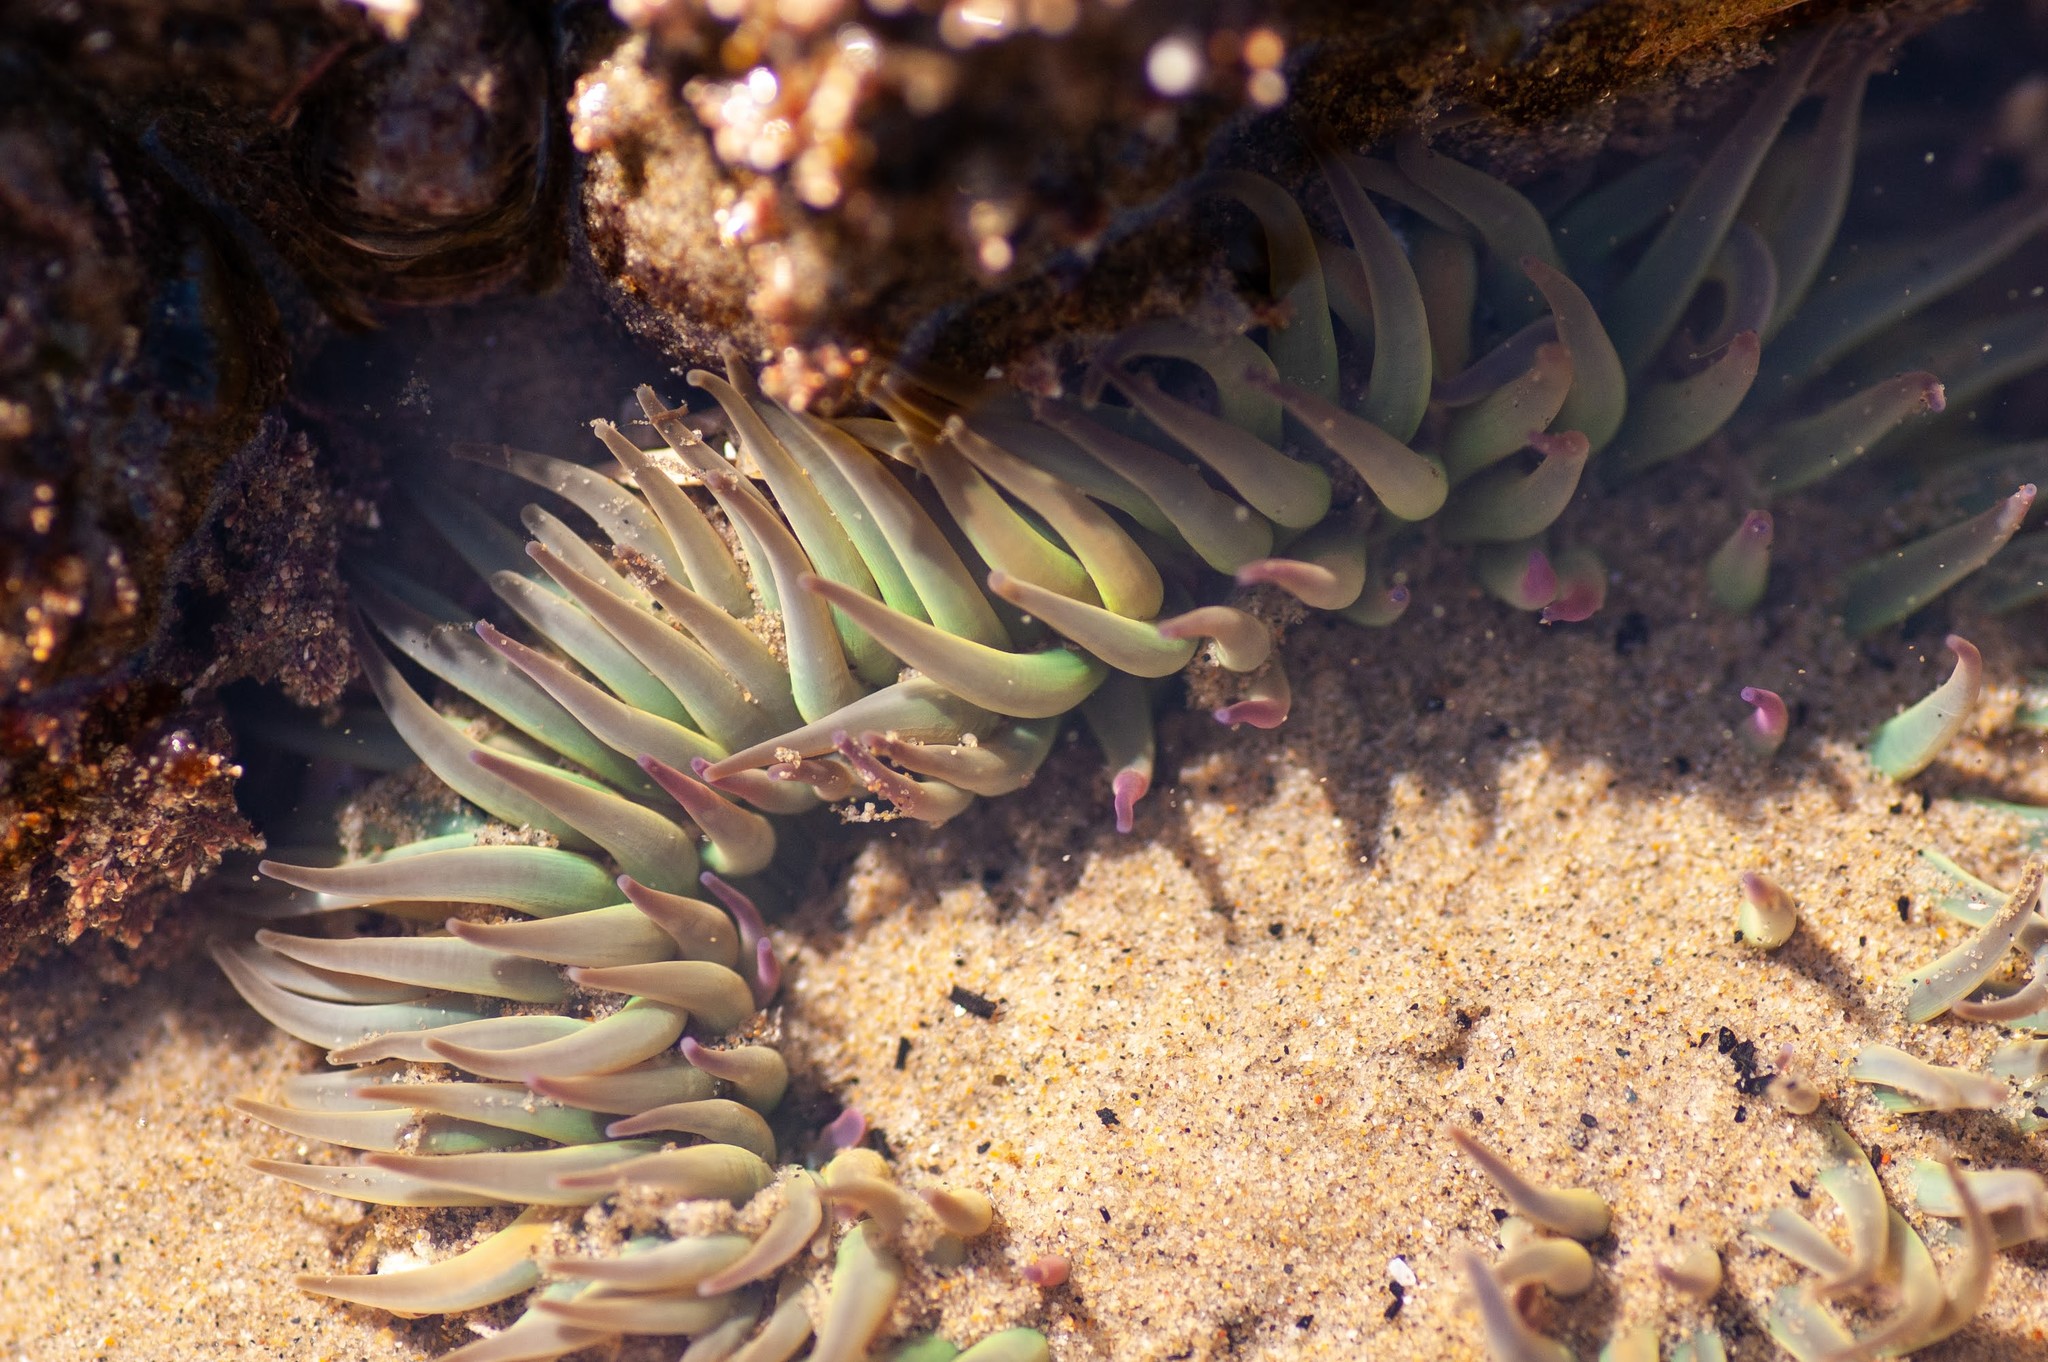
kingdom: Animalia
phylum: Cnidaria
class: Anthozoa
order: Actiniaria
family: Actiniidae
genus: Anthopleura
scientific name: Anthopleura sola
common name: Sun anemone
